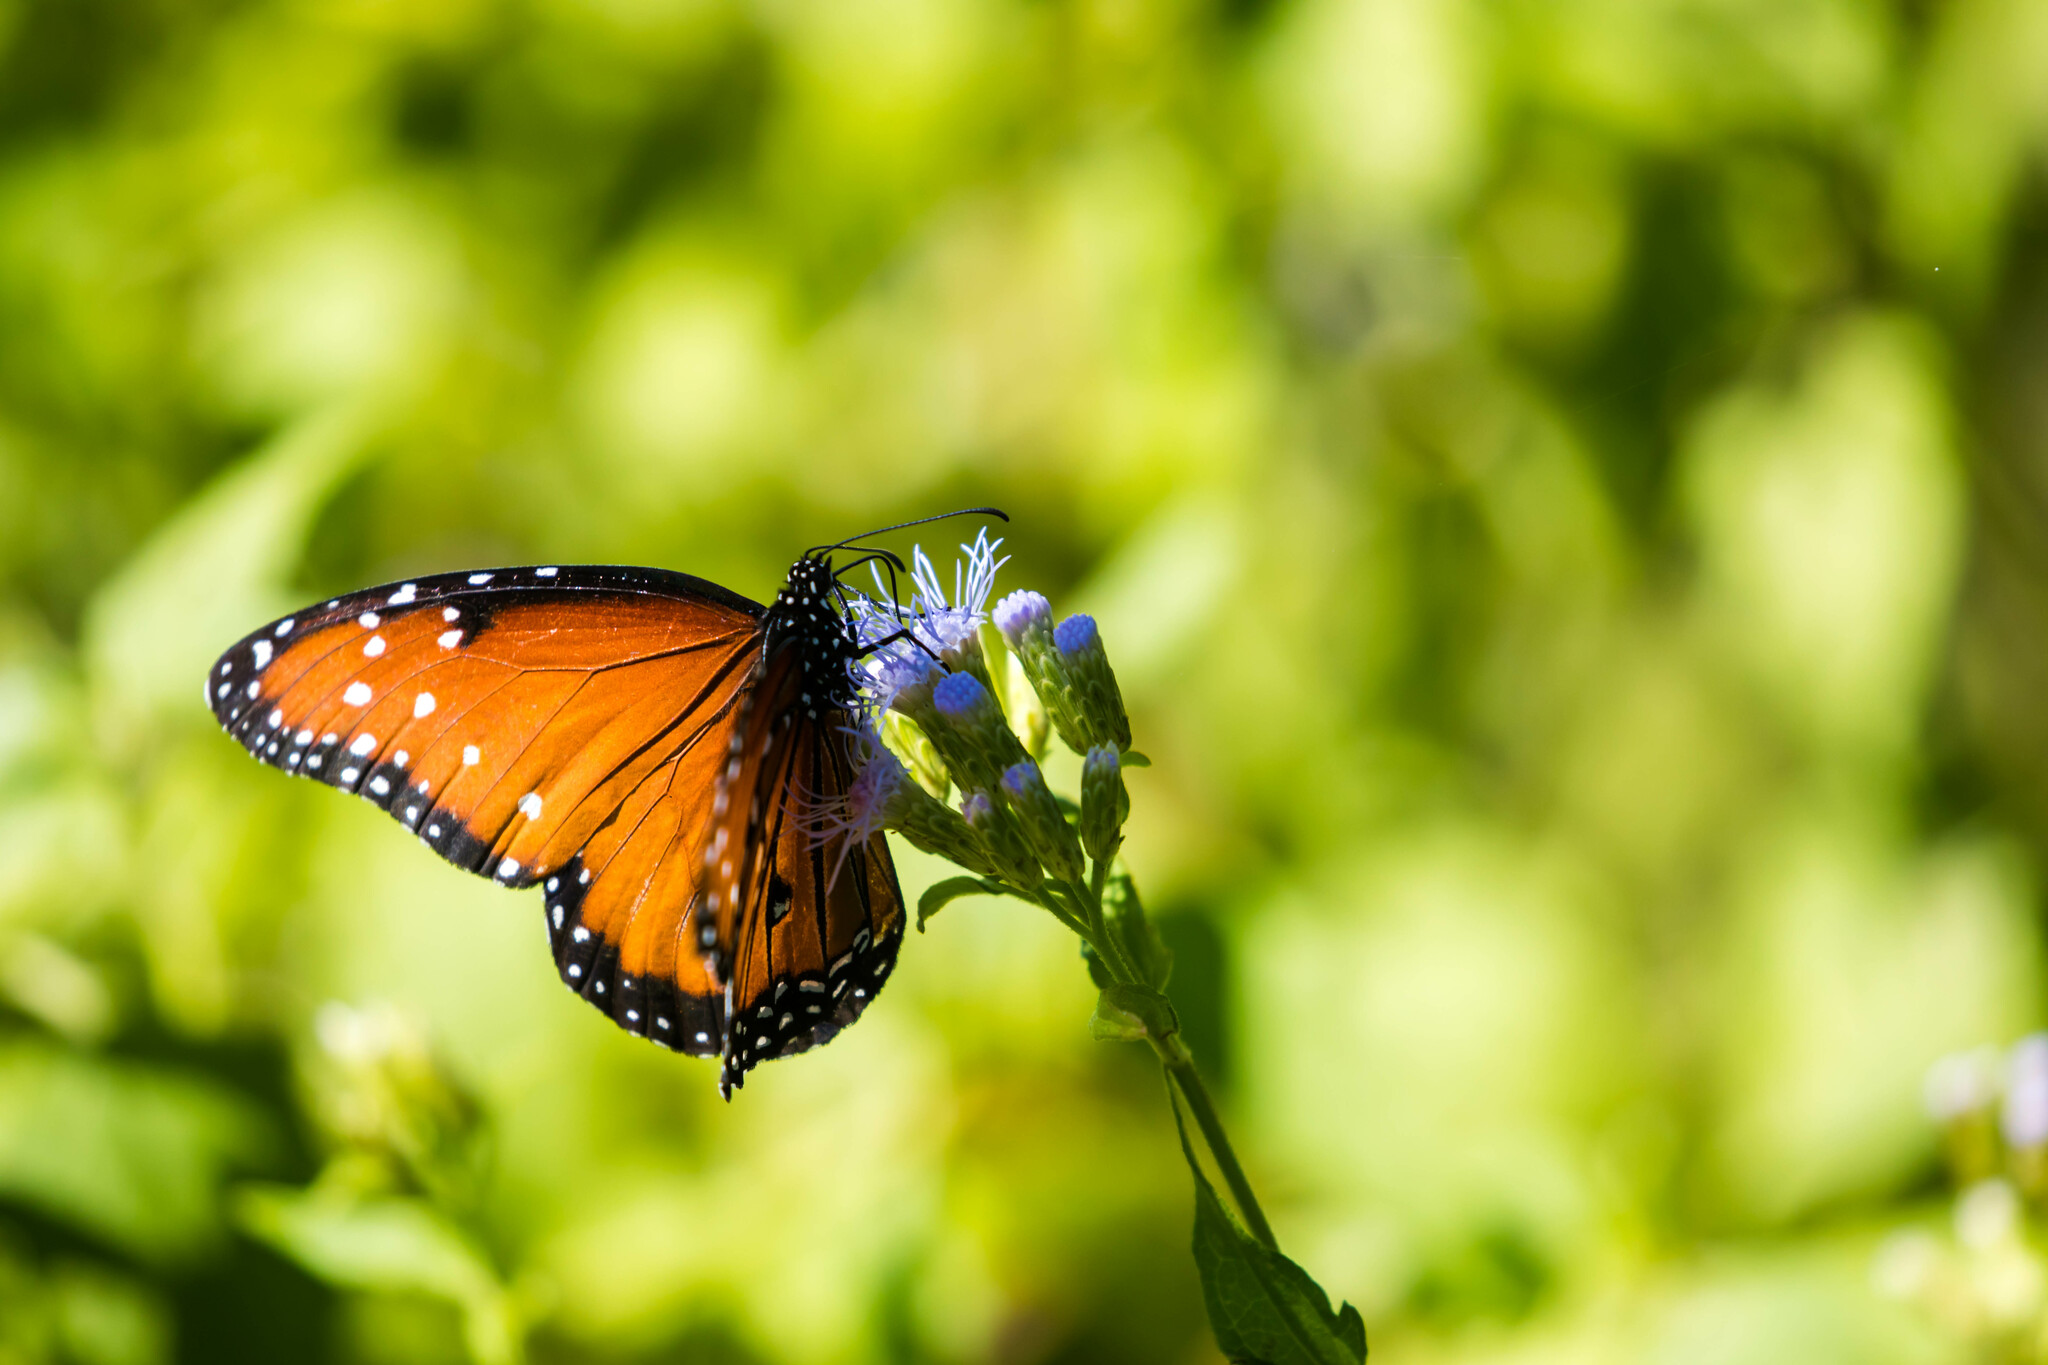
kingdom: Animalia
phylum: Arthropoda
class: Insecta
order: Lepidoptera
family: Nymphalidae
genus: Danaus
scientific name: Danaus gilippus
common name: Queen
